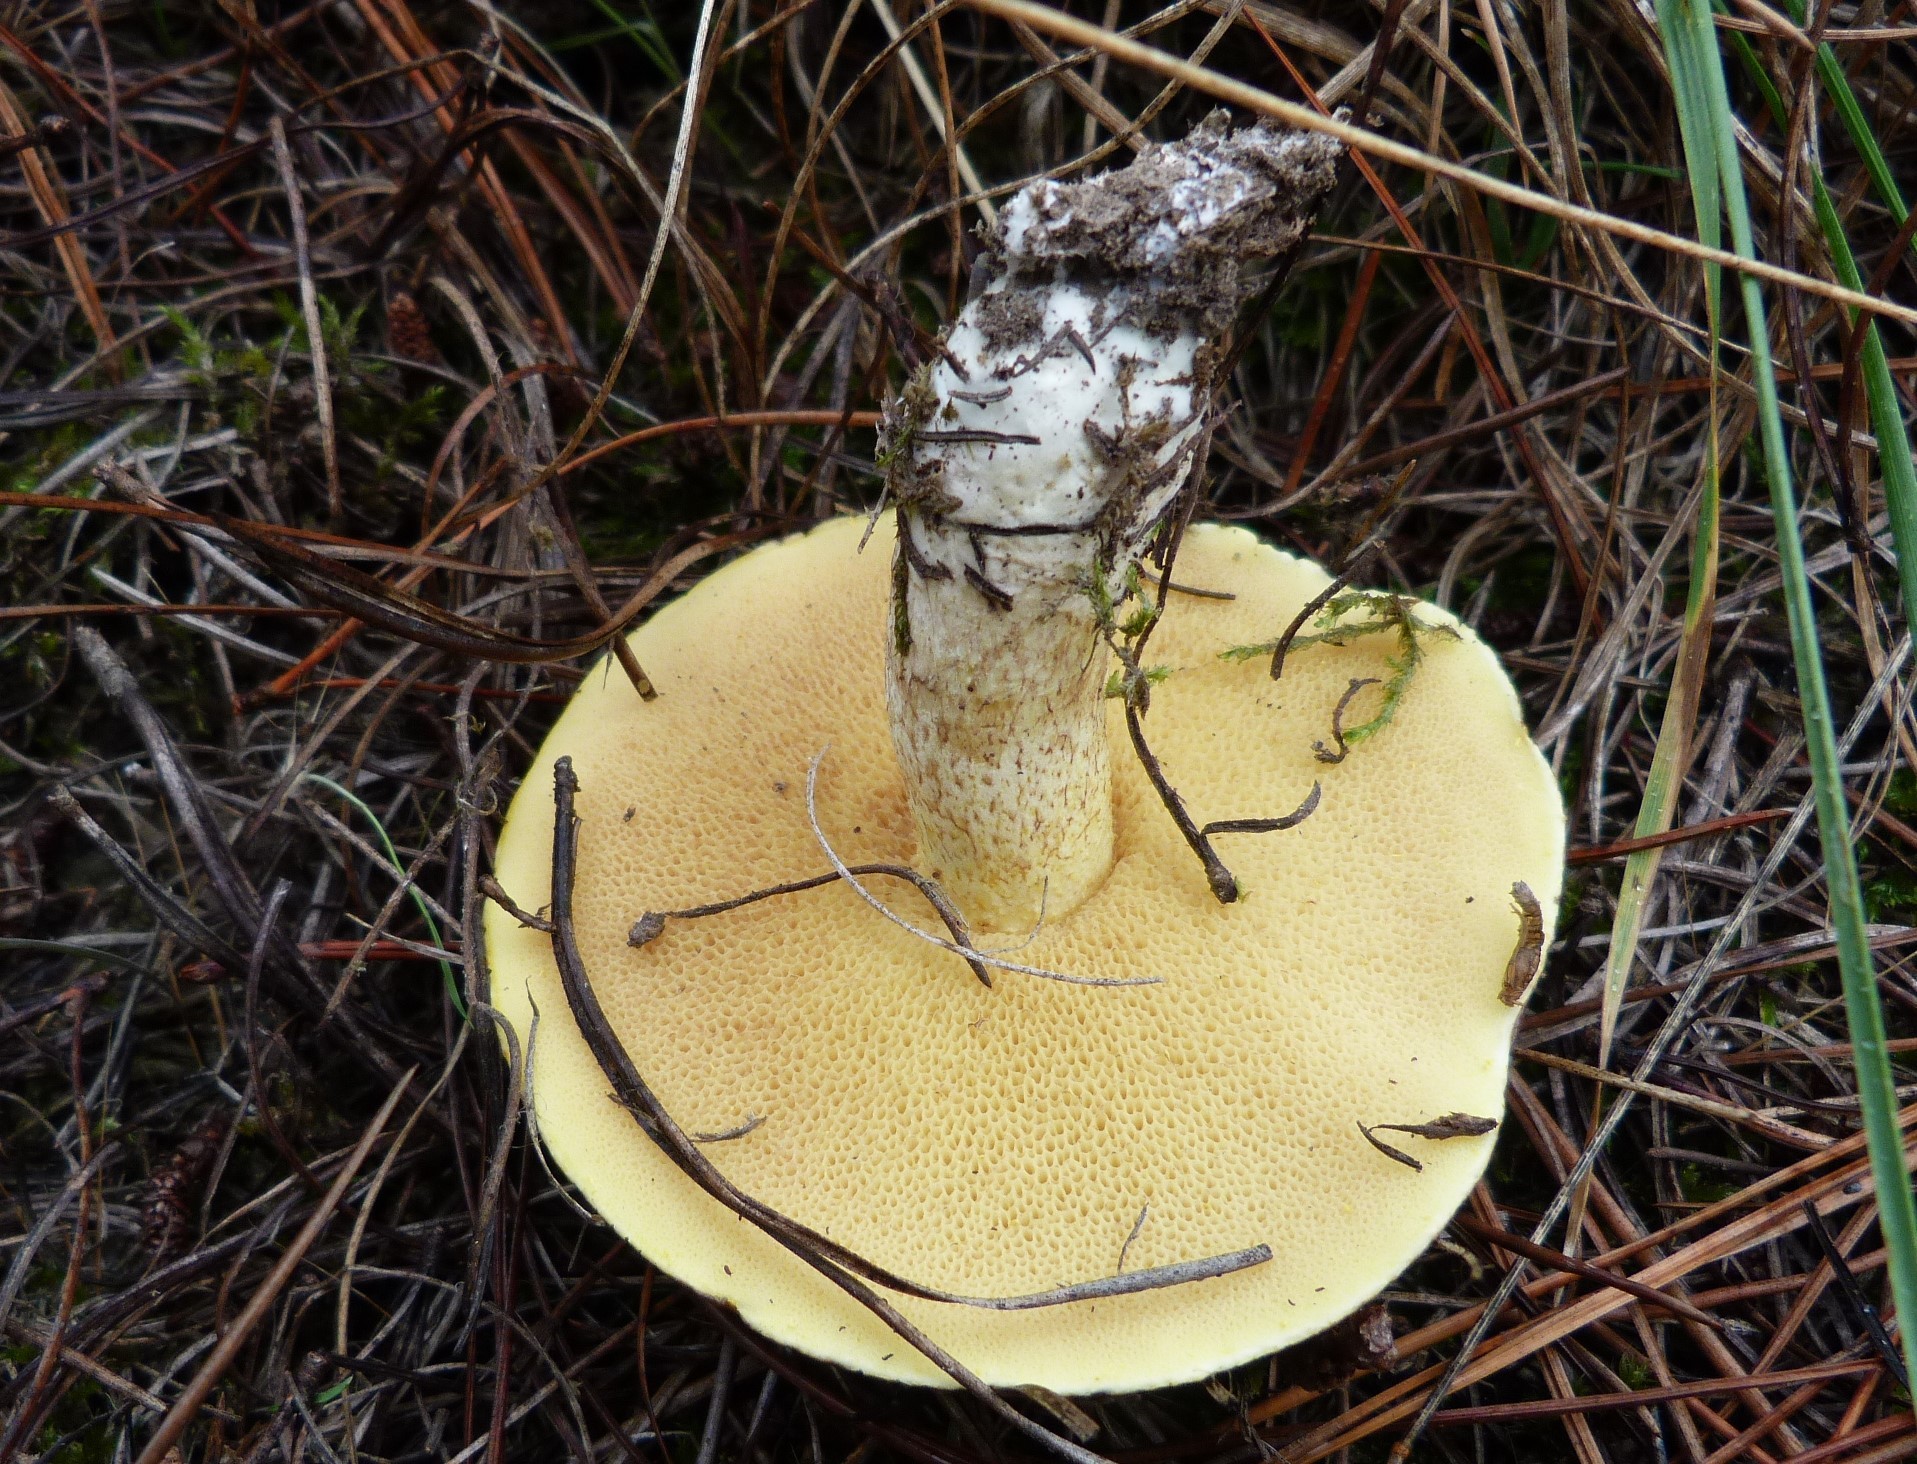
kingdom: Fungi
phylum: Basidiomycota
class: Agaricomycetes
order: Boletales
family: Suillaceae
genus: Suillus
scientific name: Suillus granulatus
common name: Weeping bolete
